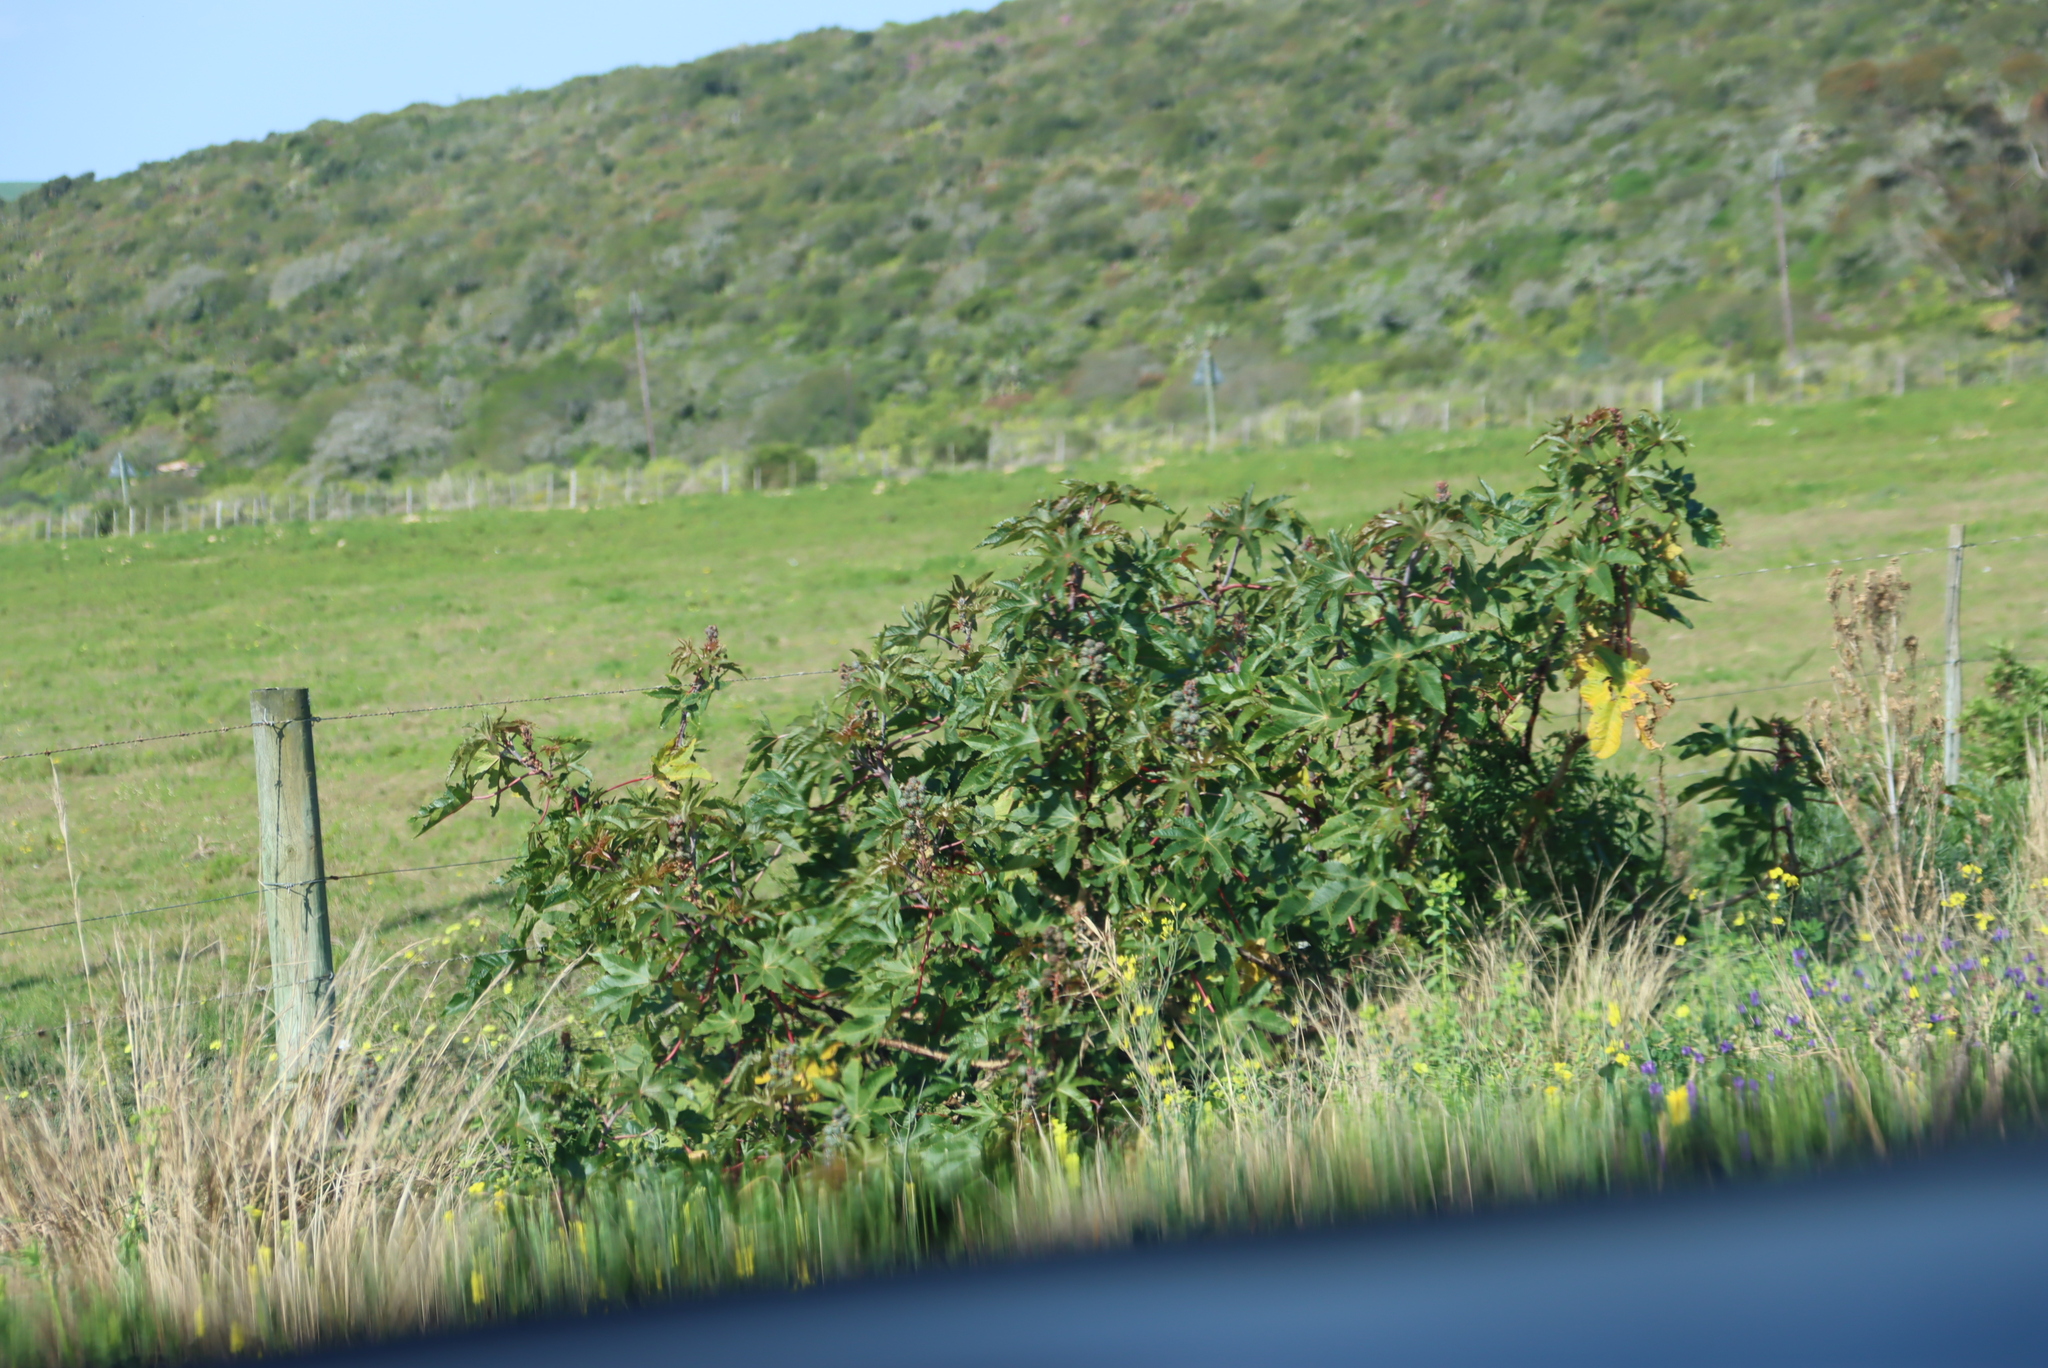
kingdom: Plantae
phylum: Tracheophyta
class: Magnoliopsida
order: Malpighiales
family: Euphorbiaceae
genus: Ricinus
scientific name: Ricinus communis
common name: Castor-oil-plant
